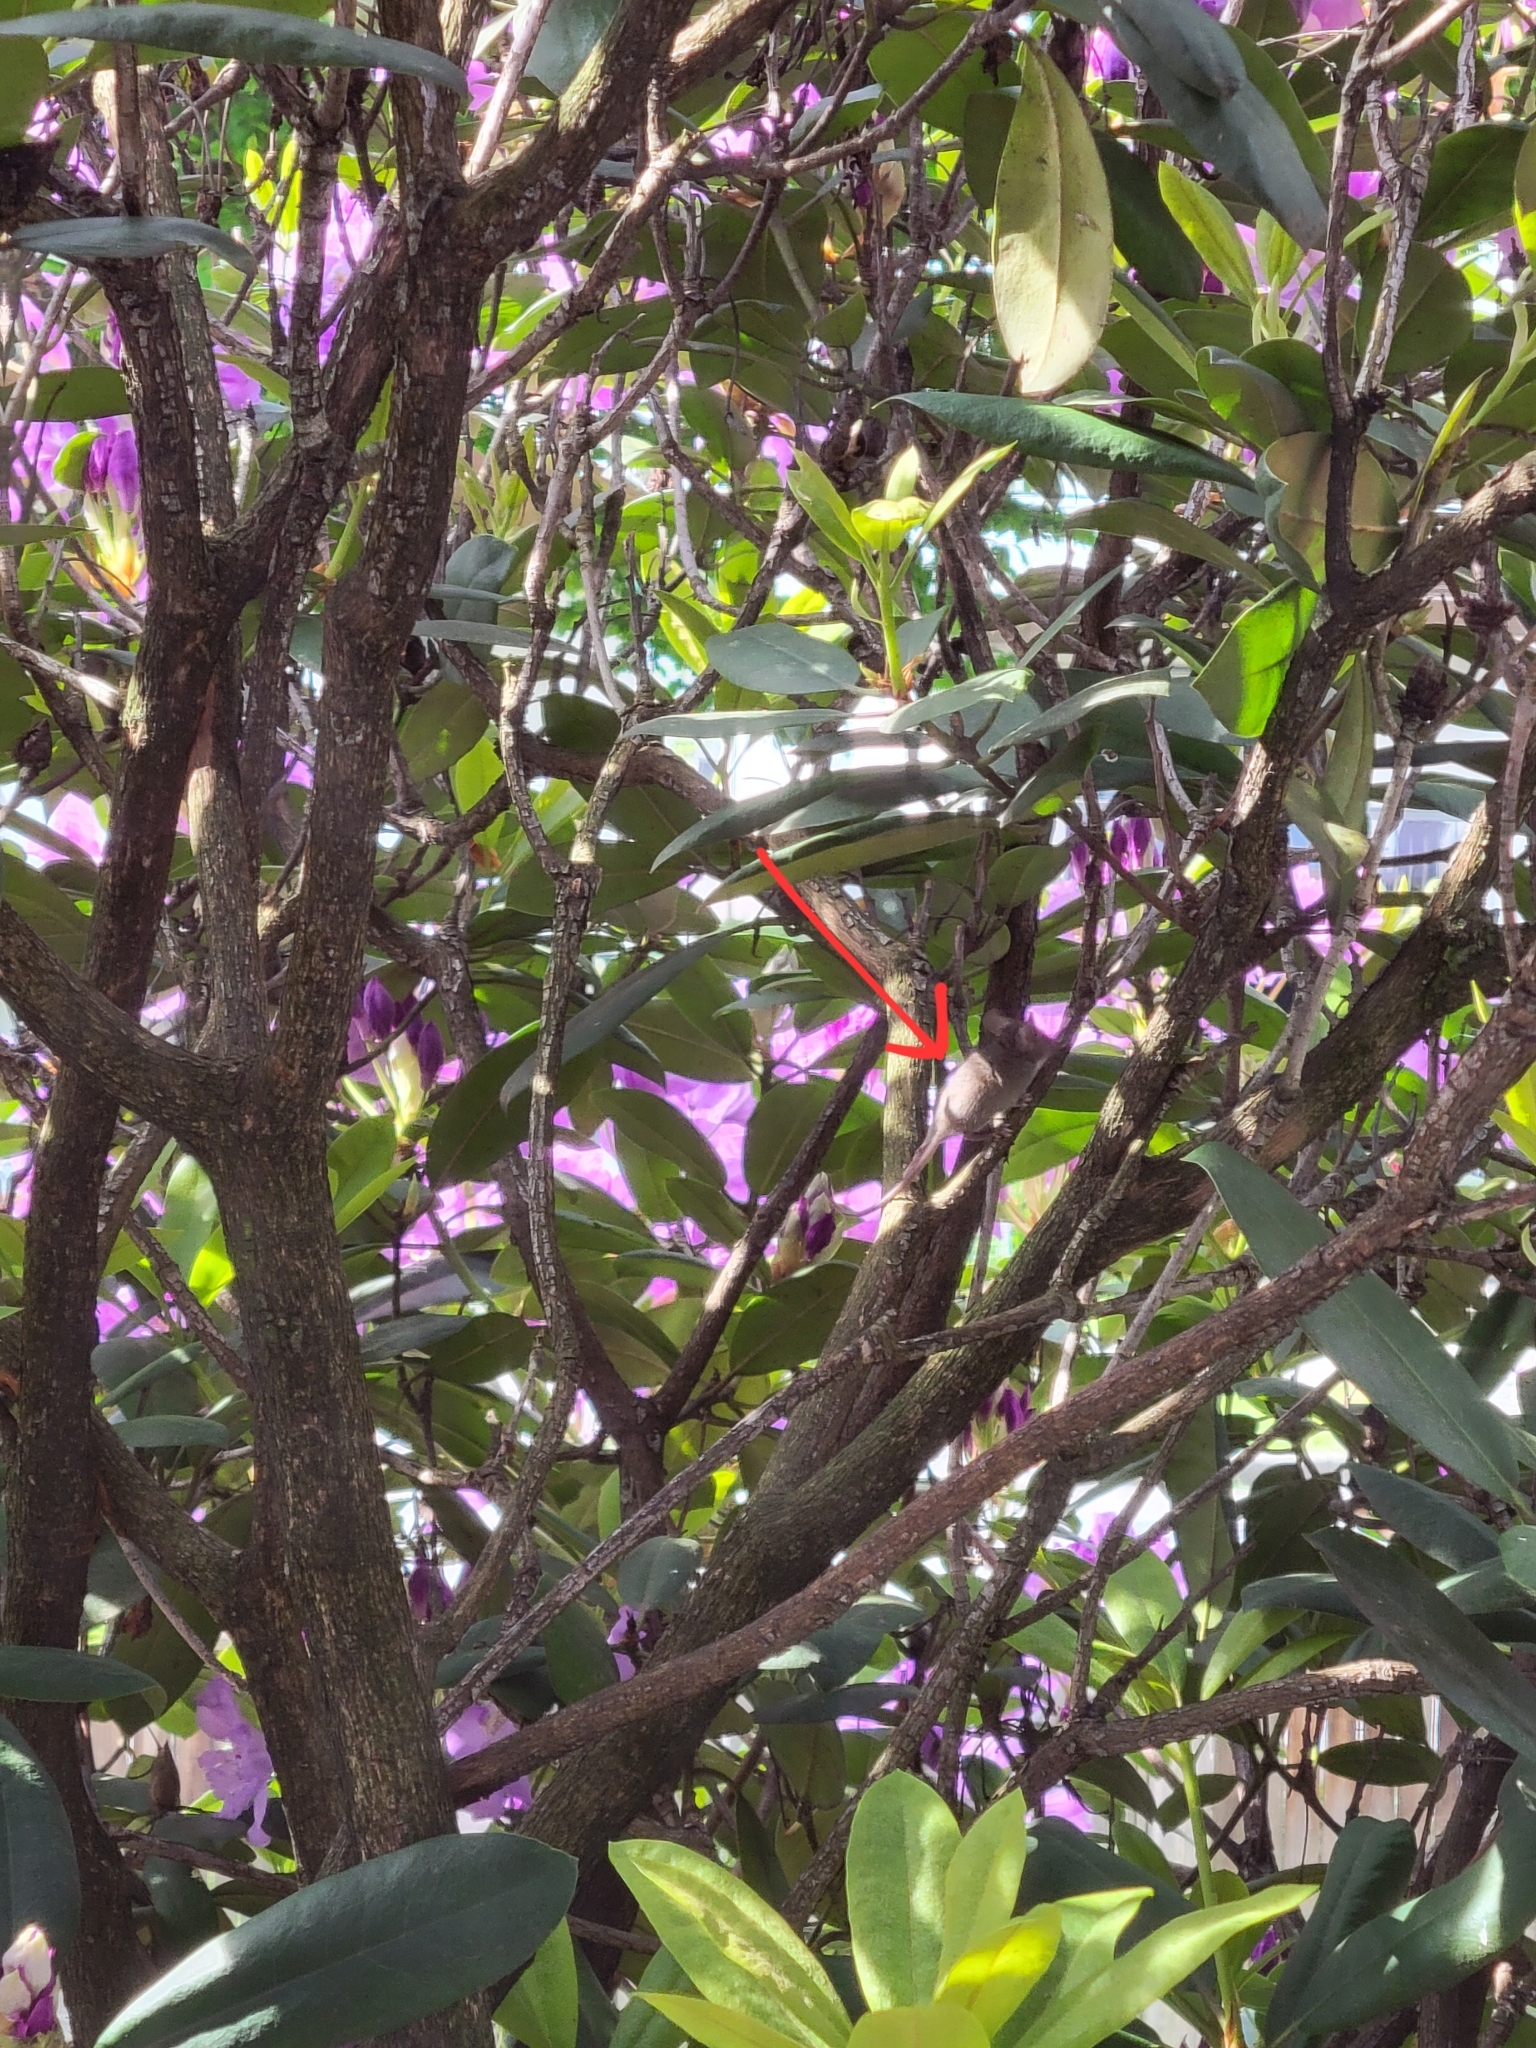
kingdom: Animalia
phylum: Chordata
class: Mammalia
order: Rodentia
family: Cricetidae
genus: Peromyscus
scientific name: Peromyscus maniculatus
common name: Deer mouse
